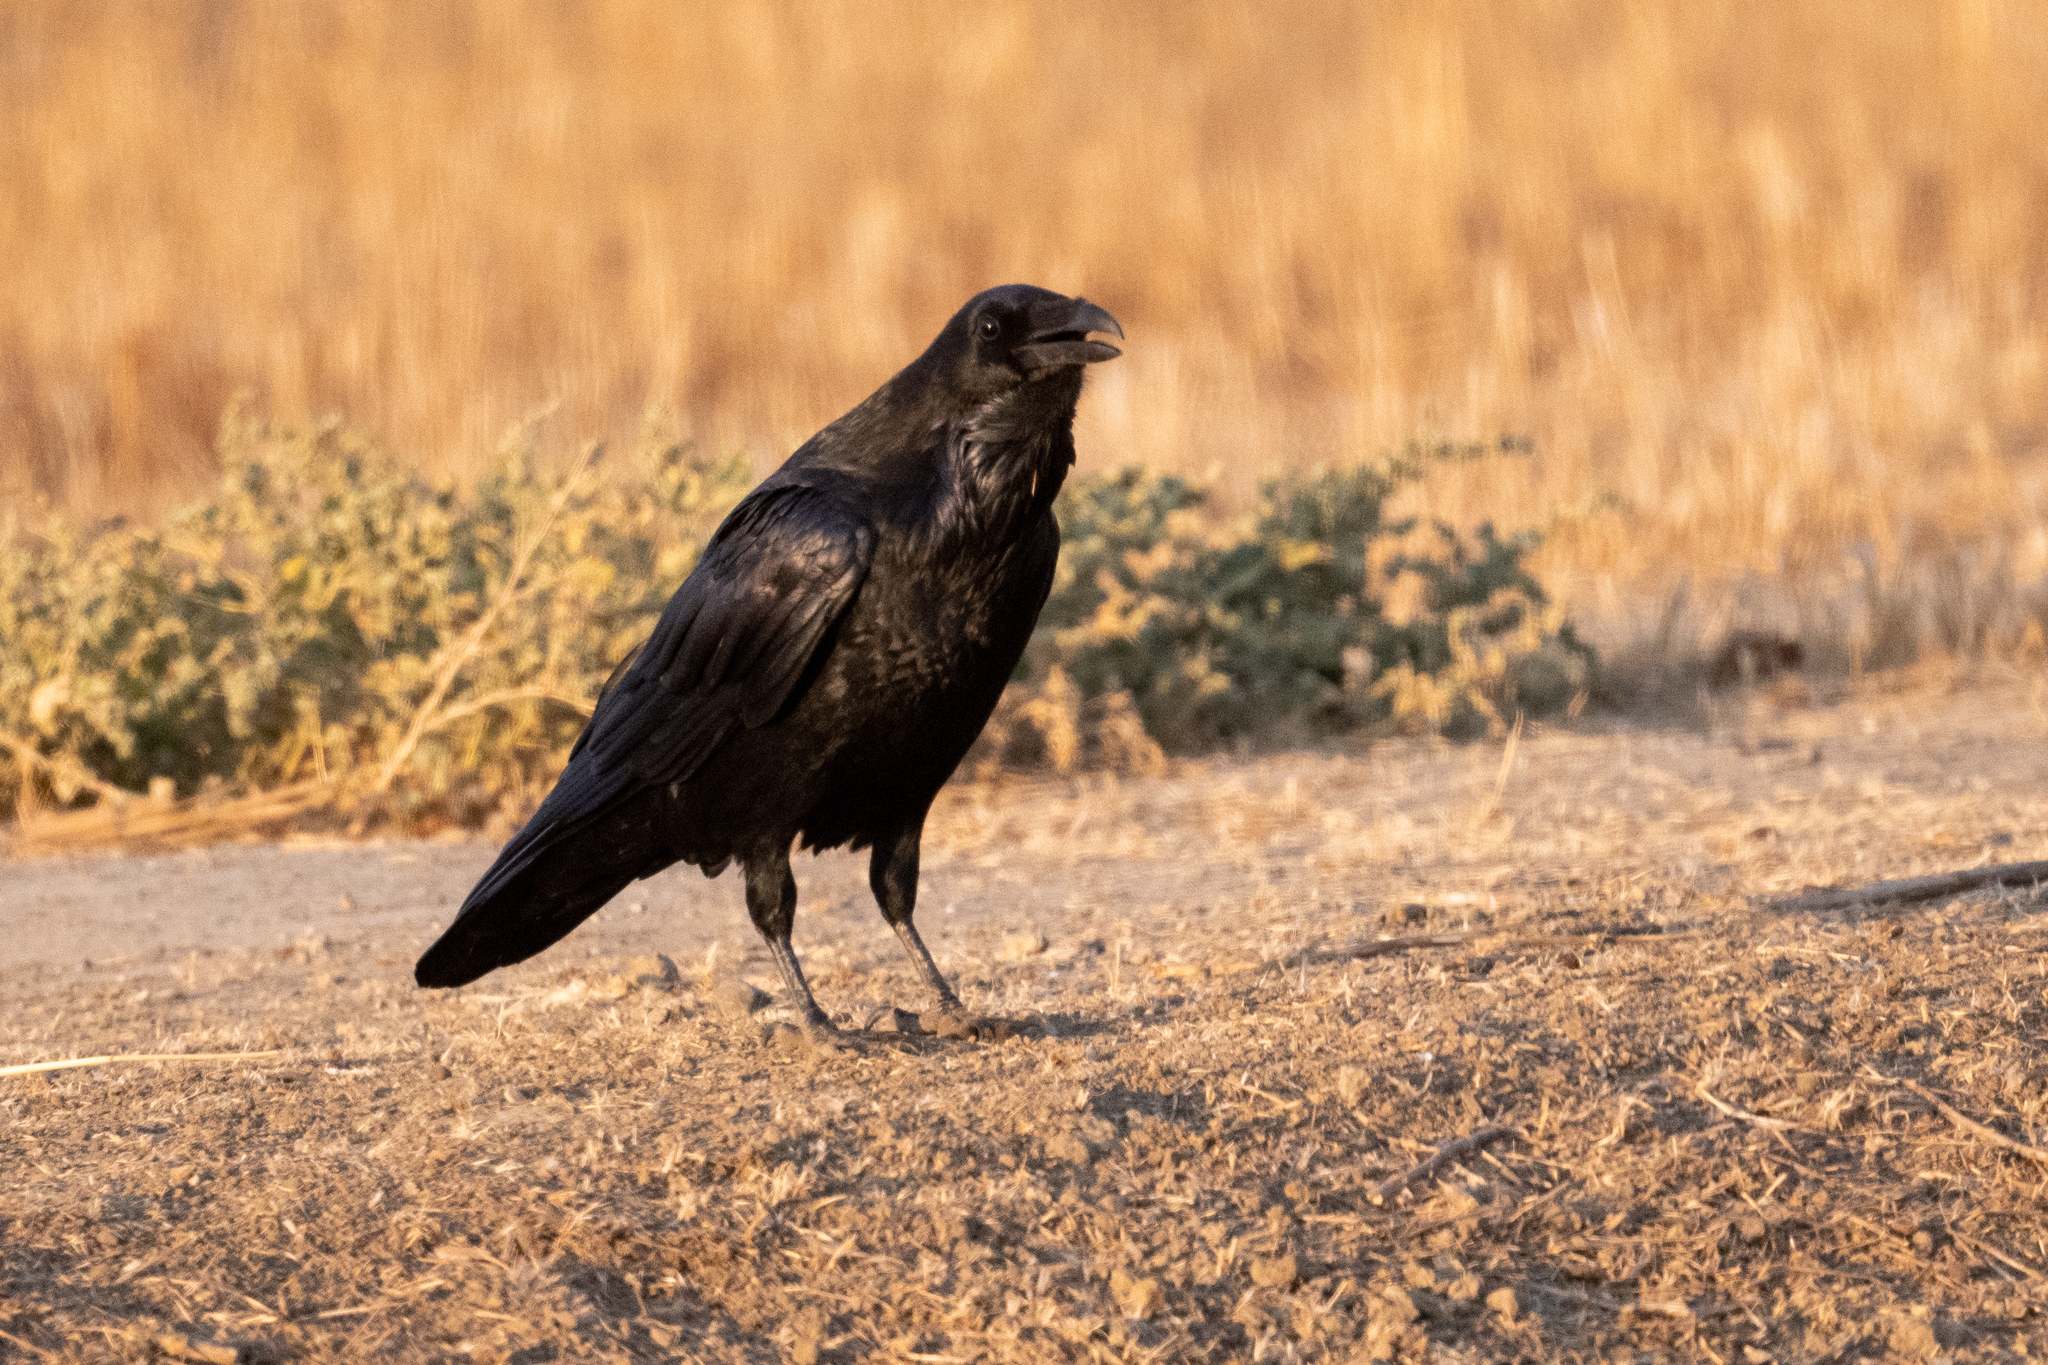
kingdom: Animalia
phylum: Chordata
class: Aves
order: Passeriformes
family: Corvidae
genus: Corvus
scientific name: Corvus corax
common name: Common raven
